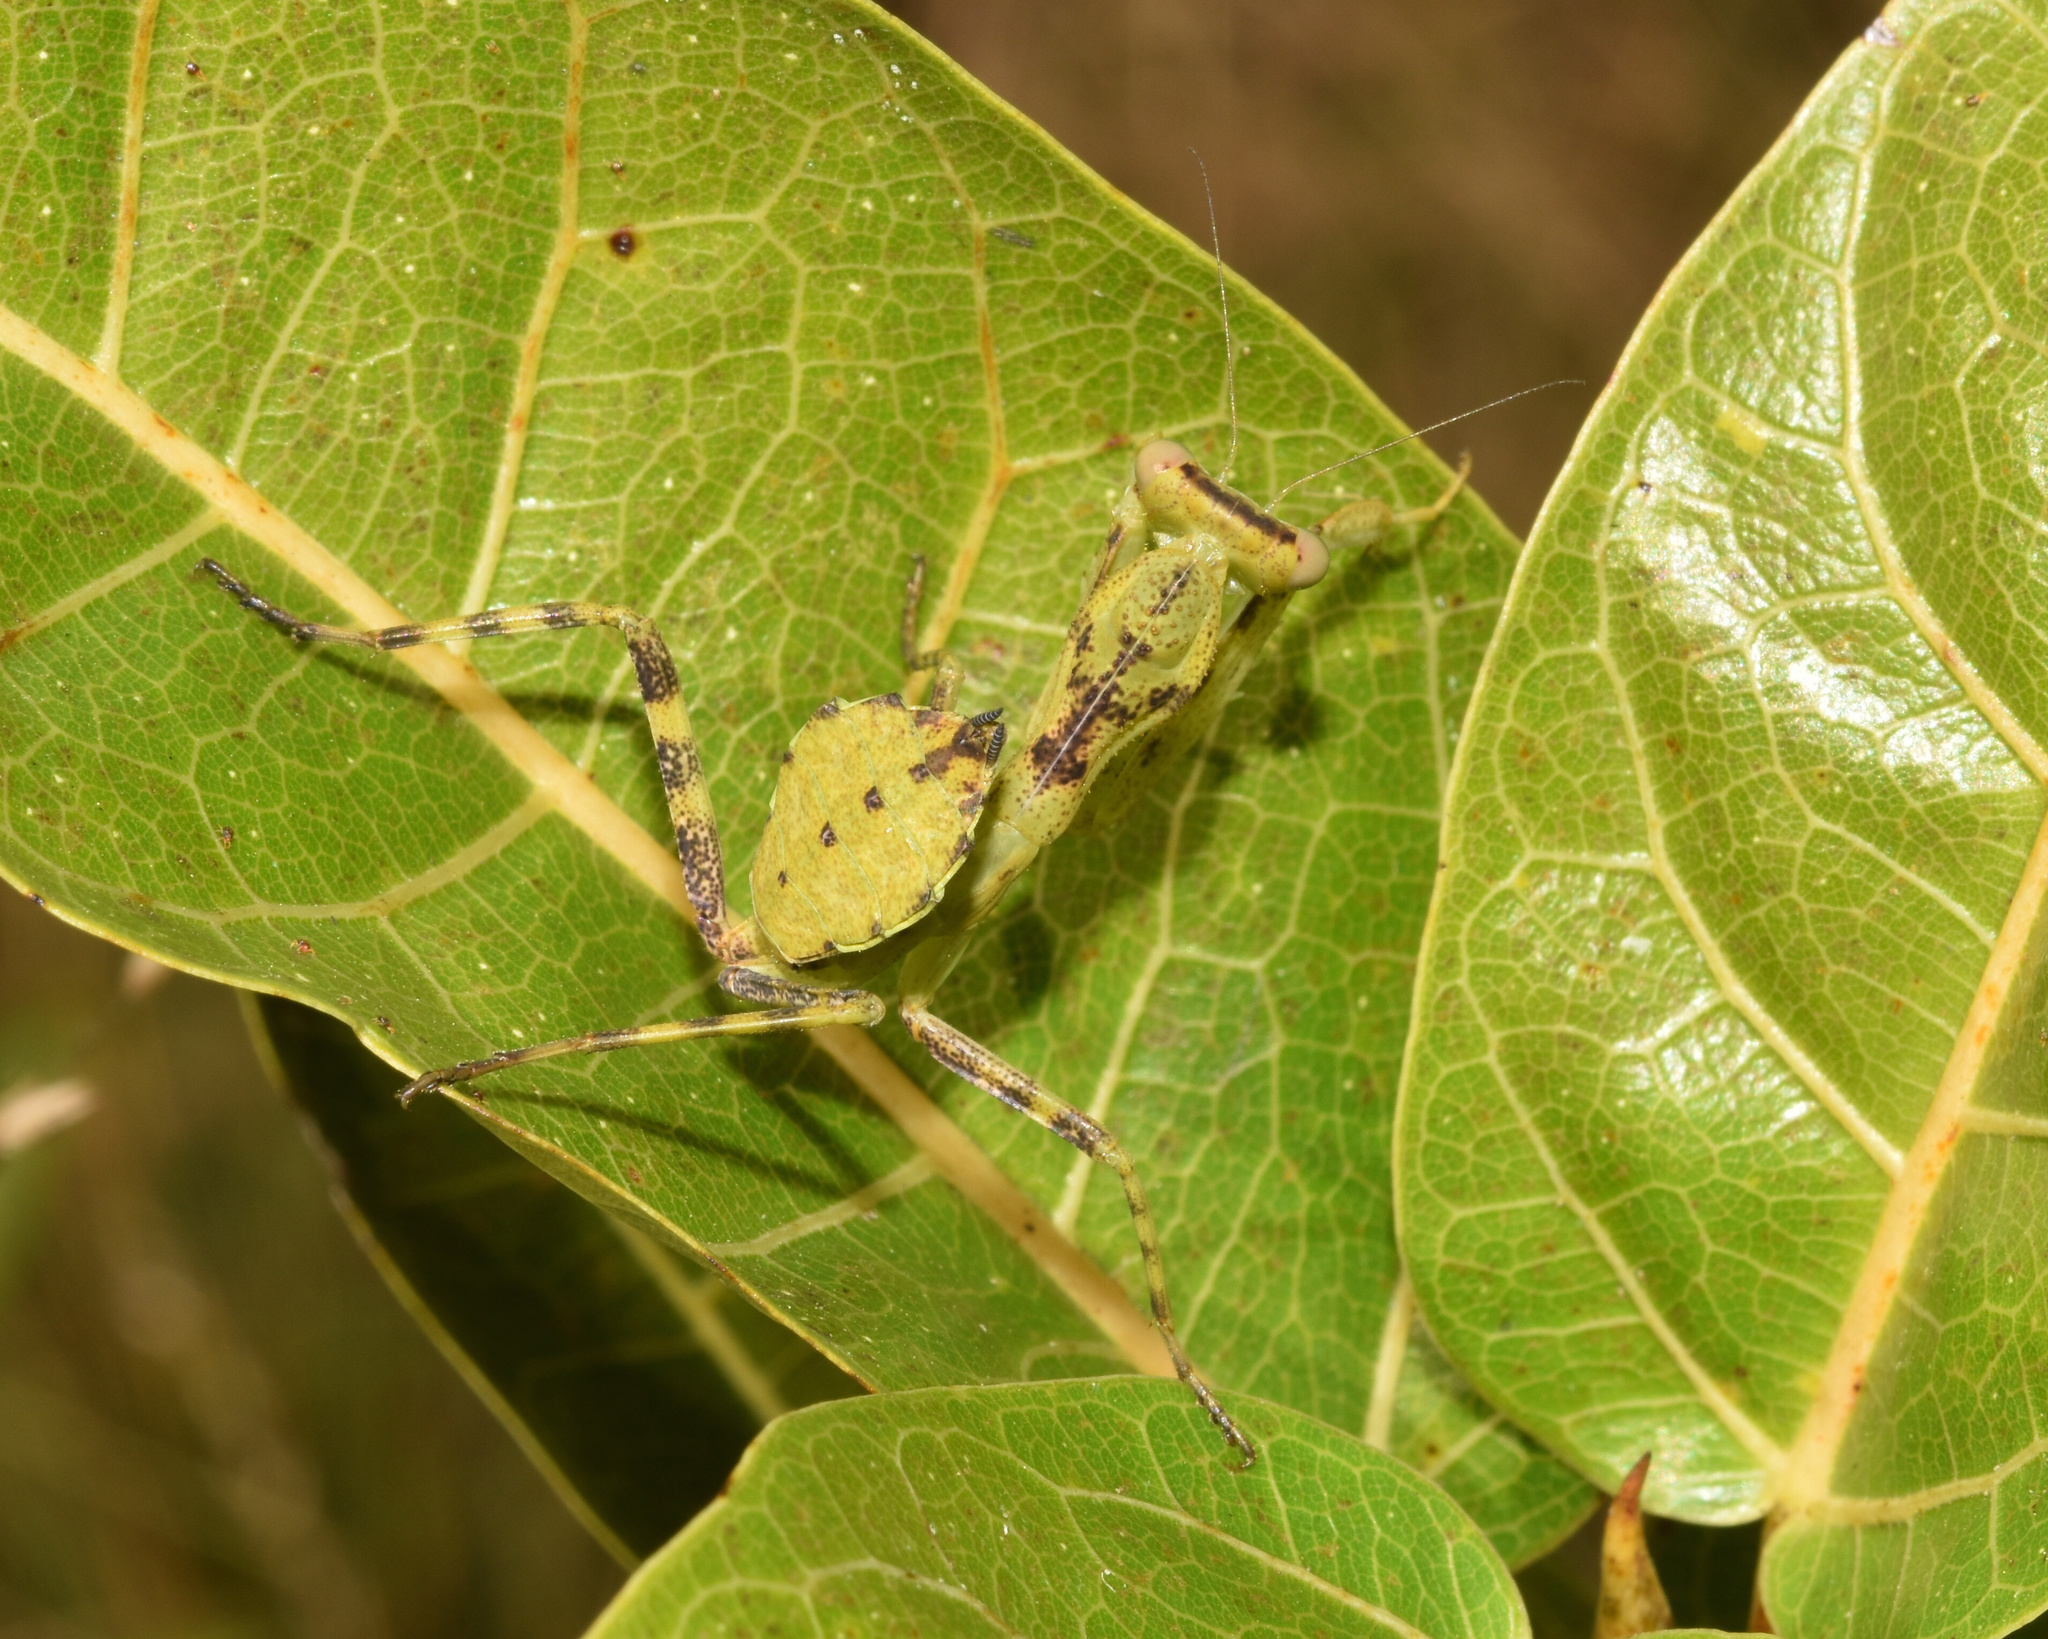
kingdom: Animalia
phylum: Arthropoda
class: Insecta
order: Mantodea
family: Miomantidae
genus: Cilnia
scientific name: Cilnia humeralis
